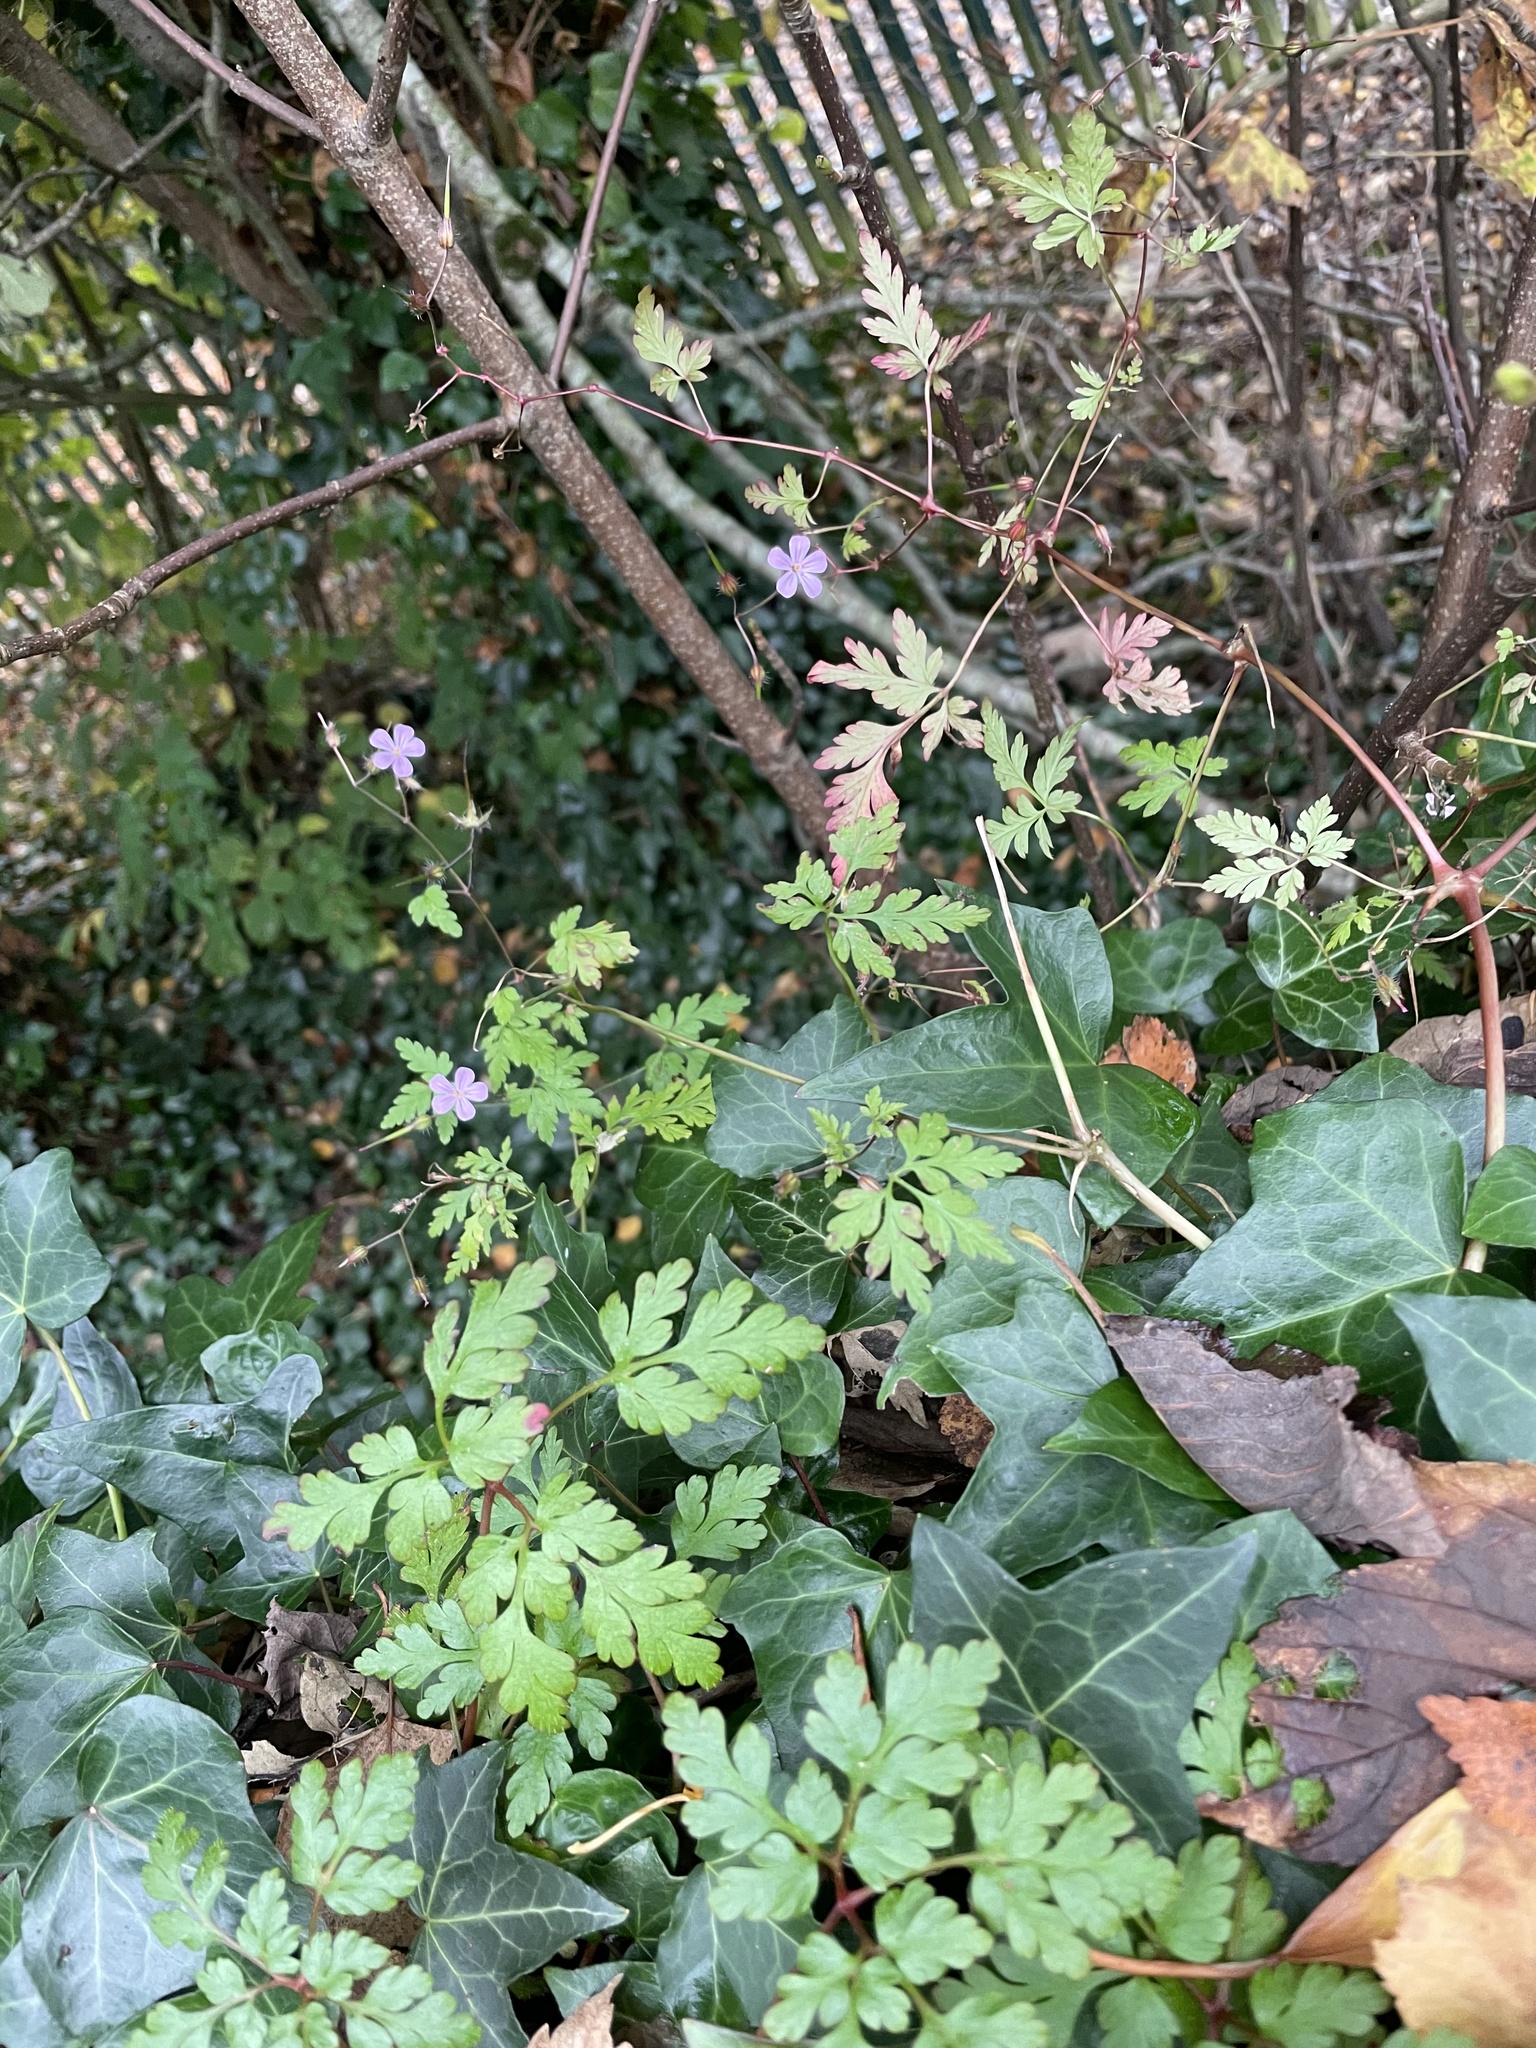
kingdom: Plantae
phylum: Tracheophyta
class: Magnoliopsida
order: Geraniales
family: Geraniaceae
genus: Geranium
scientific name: Geranium robertianum
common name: Herb-robert
